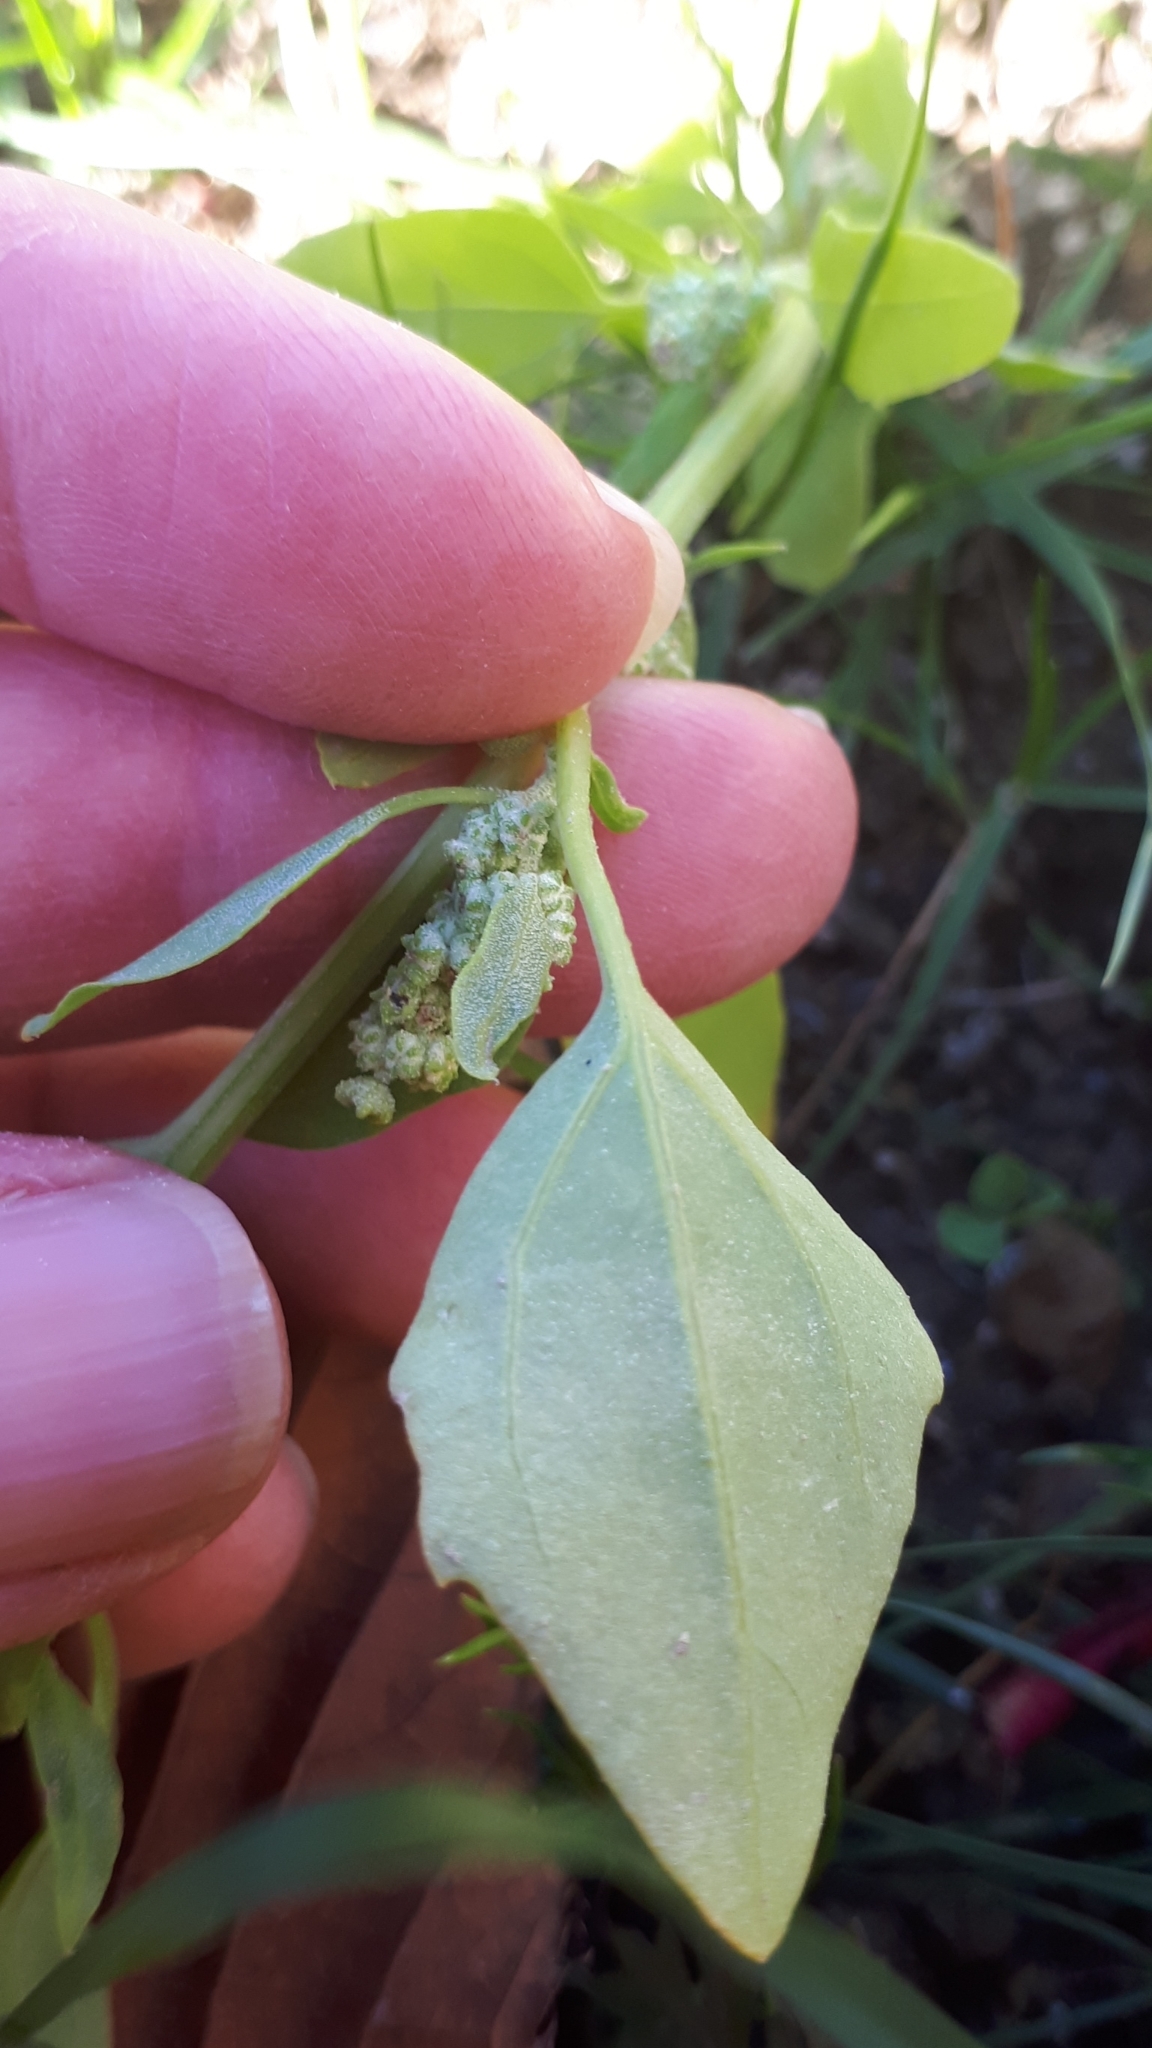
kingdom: Plantae
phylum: Tracheophyta
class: Magnoliopsida
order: Caryophyllales
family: Amaranthaceae
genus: Chenopodium
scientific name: Chenopodium album
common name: Fat-hen
